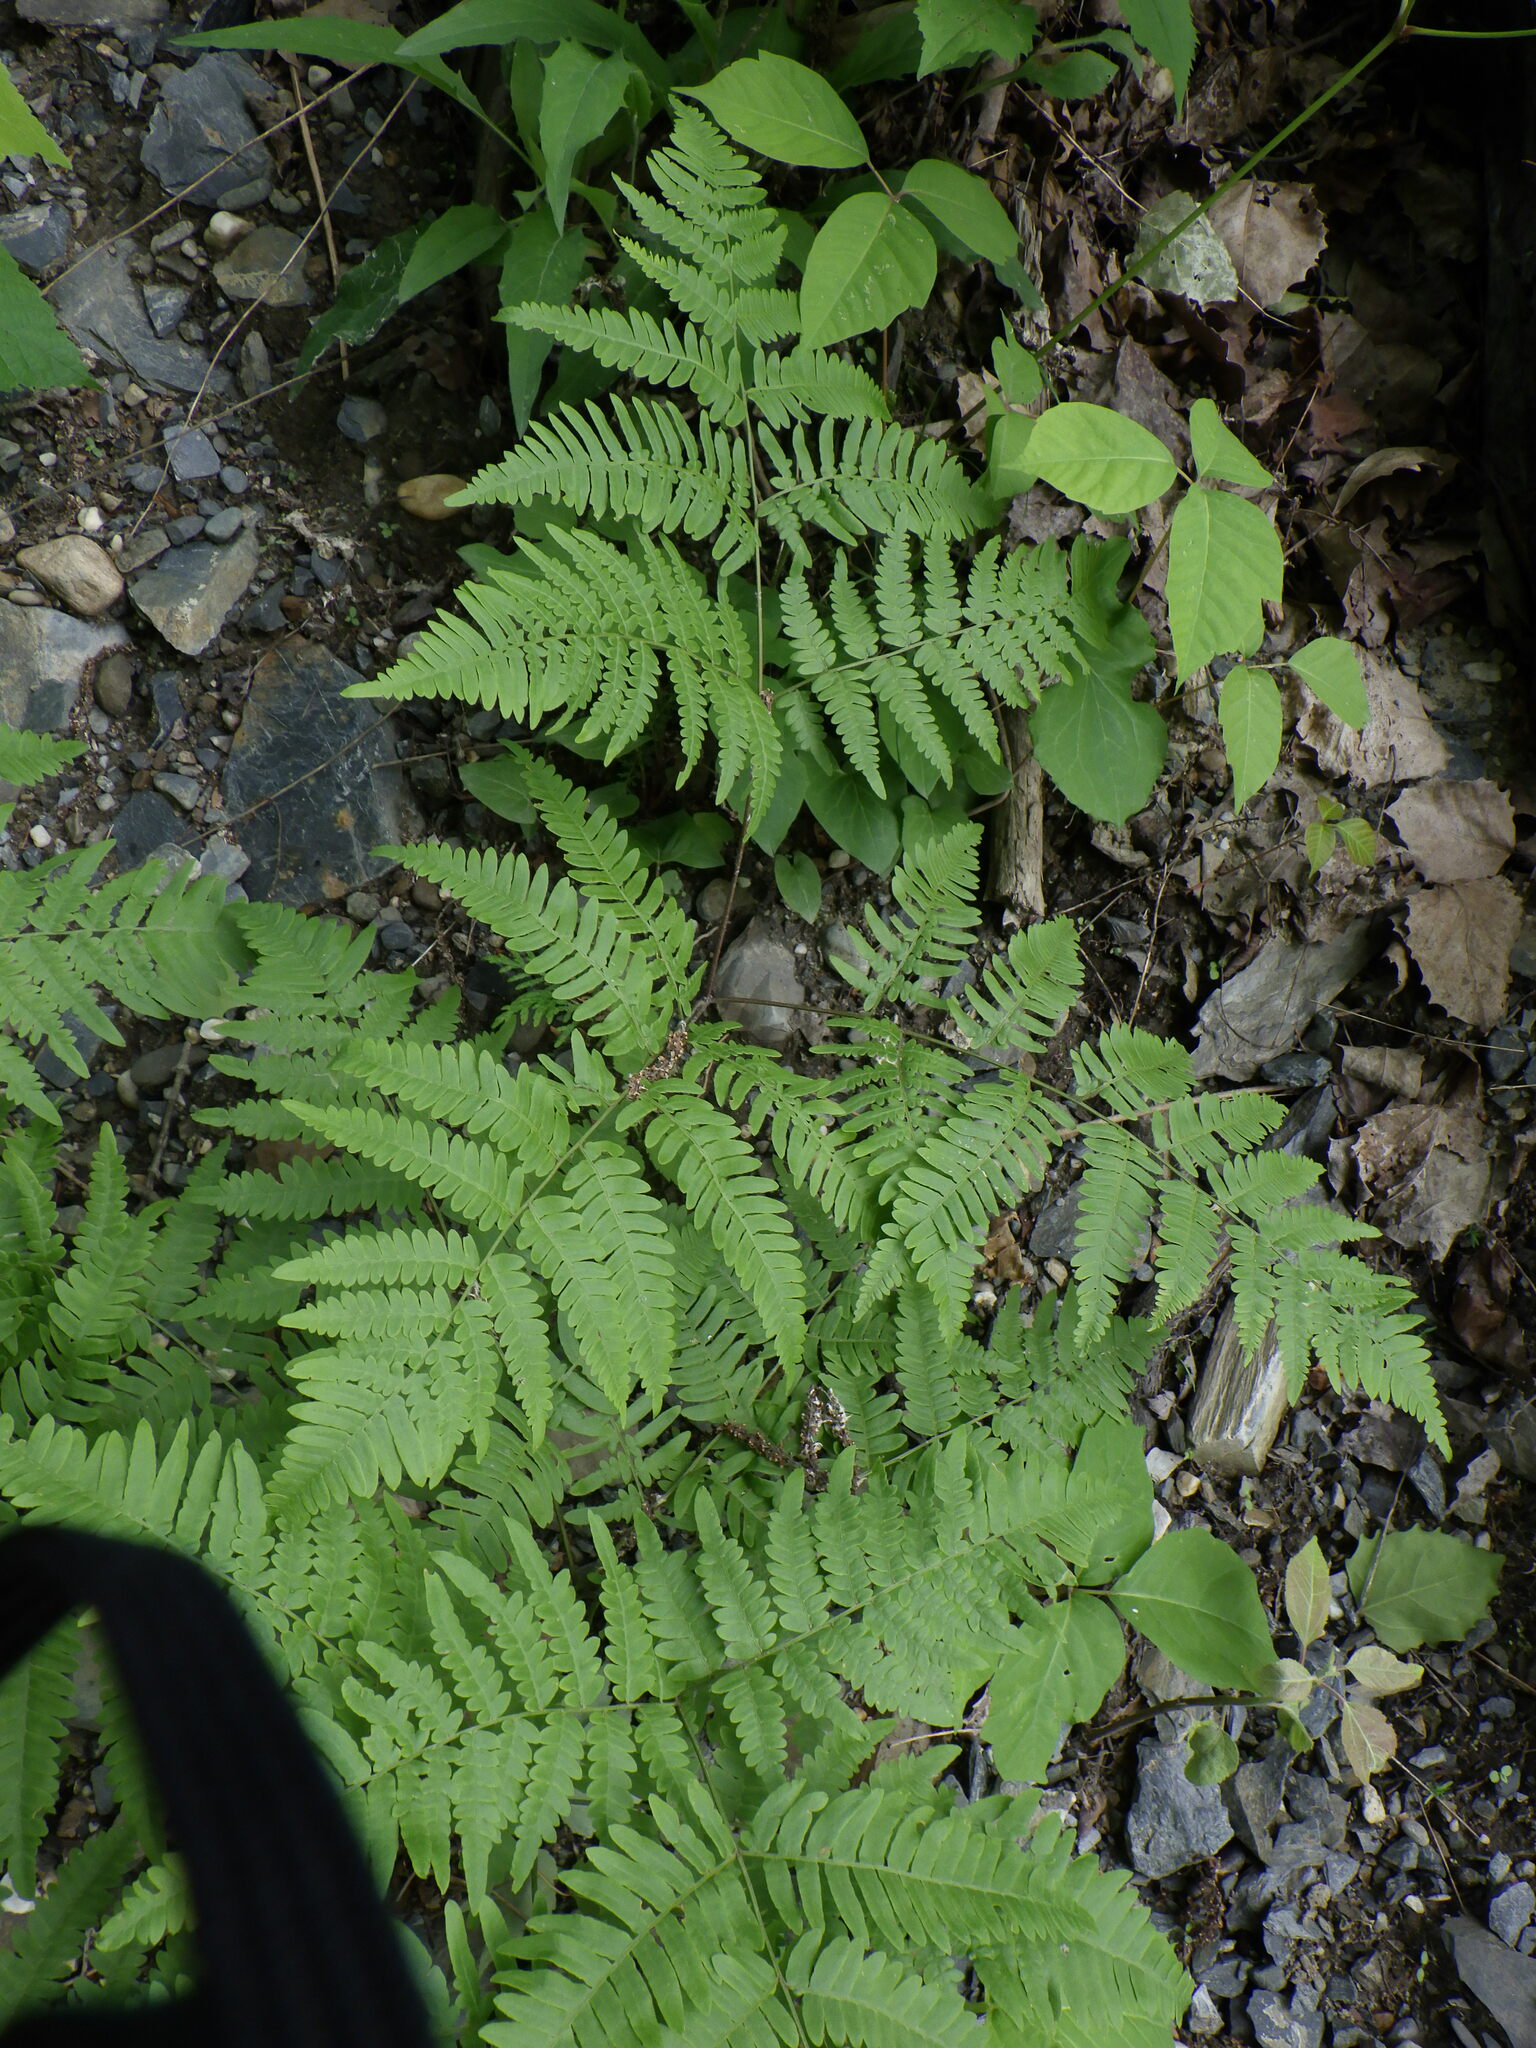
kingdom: Plantae
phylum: Tracheophyta
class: Polypodiopsida
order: Polypodiales
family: Dennstaedtiaceae
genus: Pteridium
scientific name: Pteridium aquilinum
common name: Bracken
